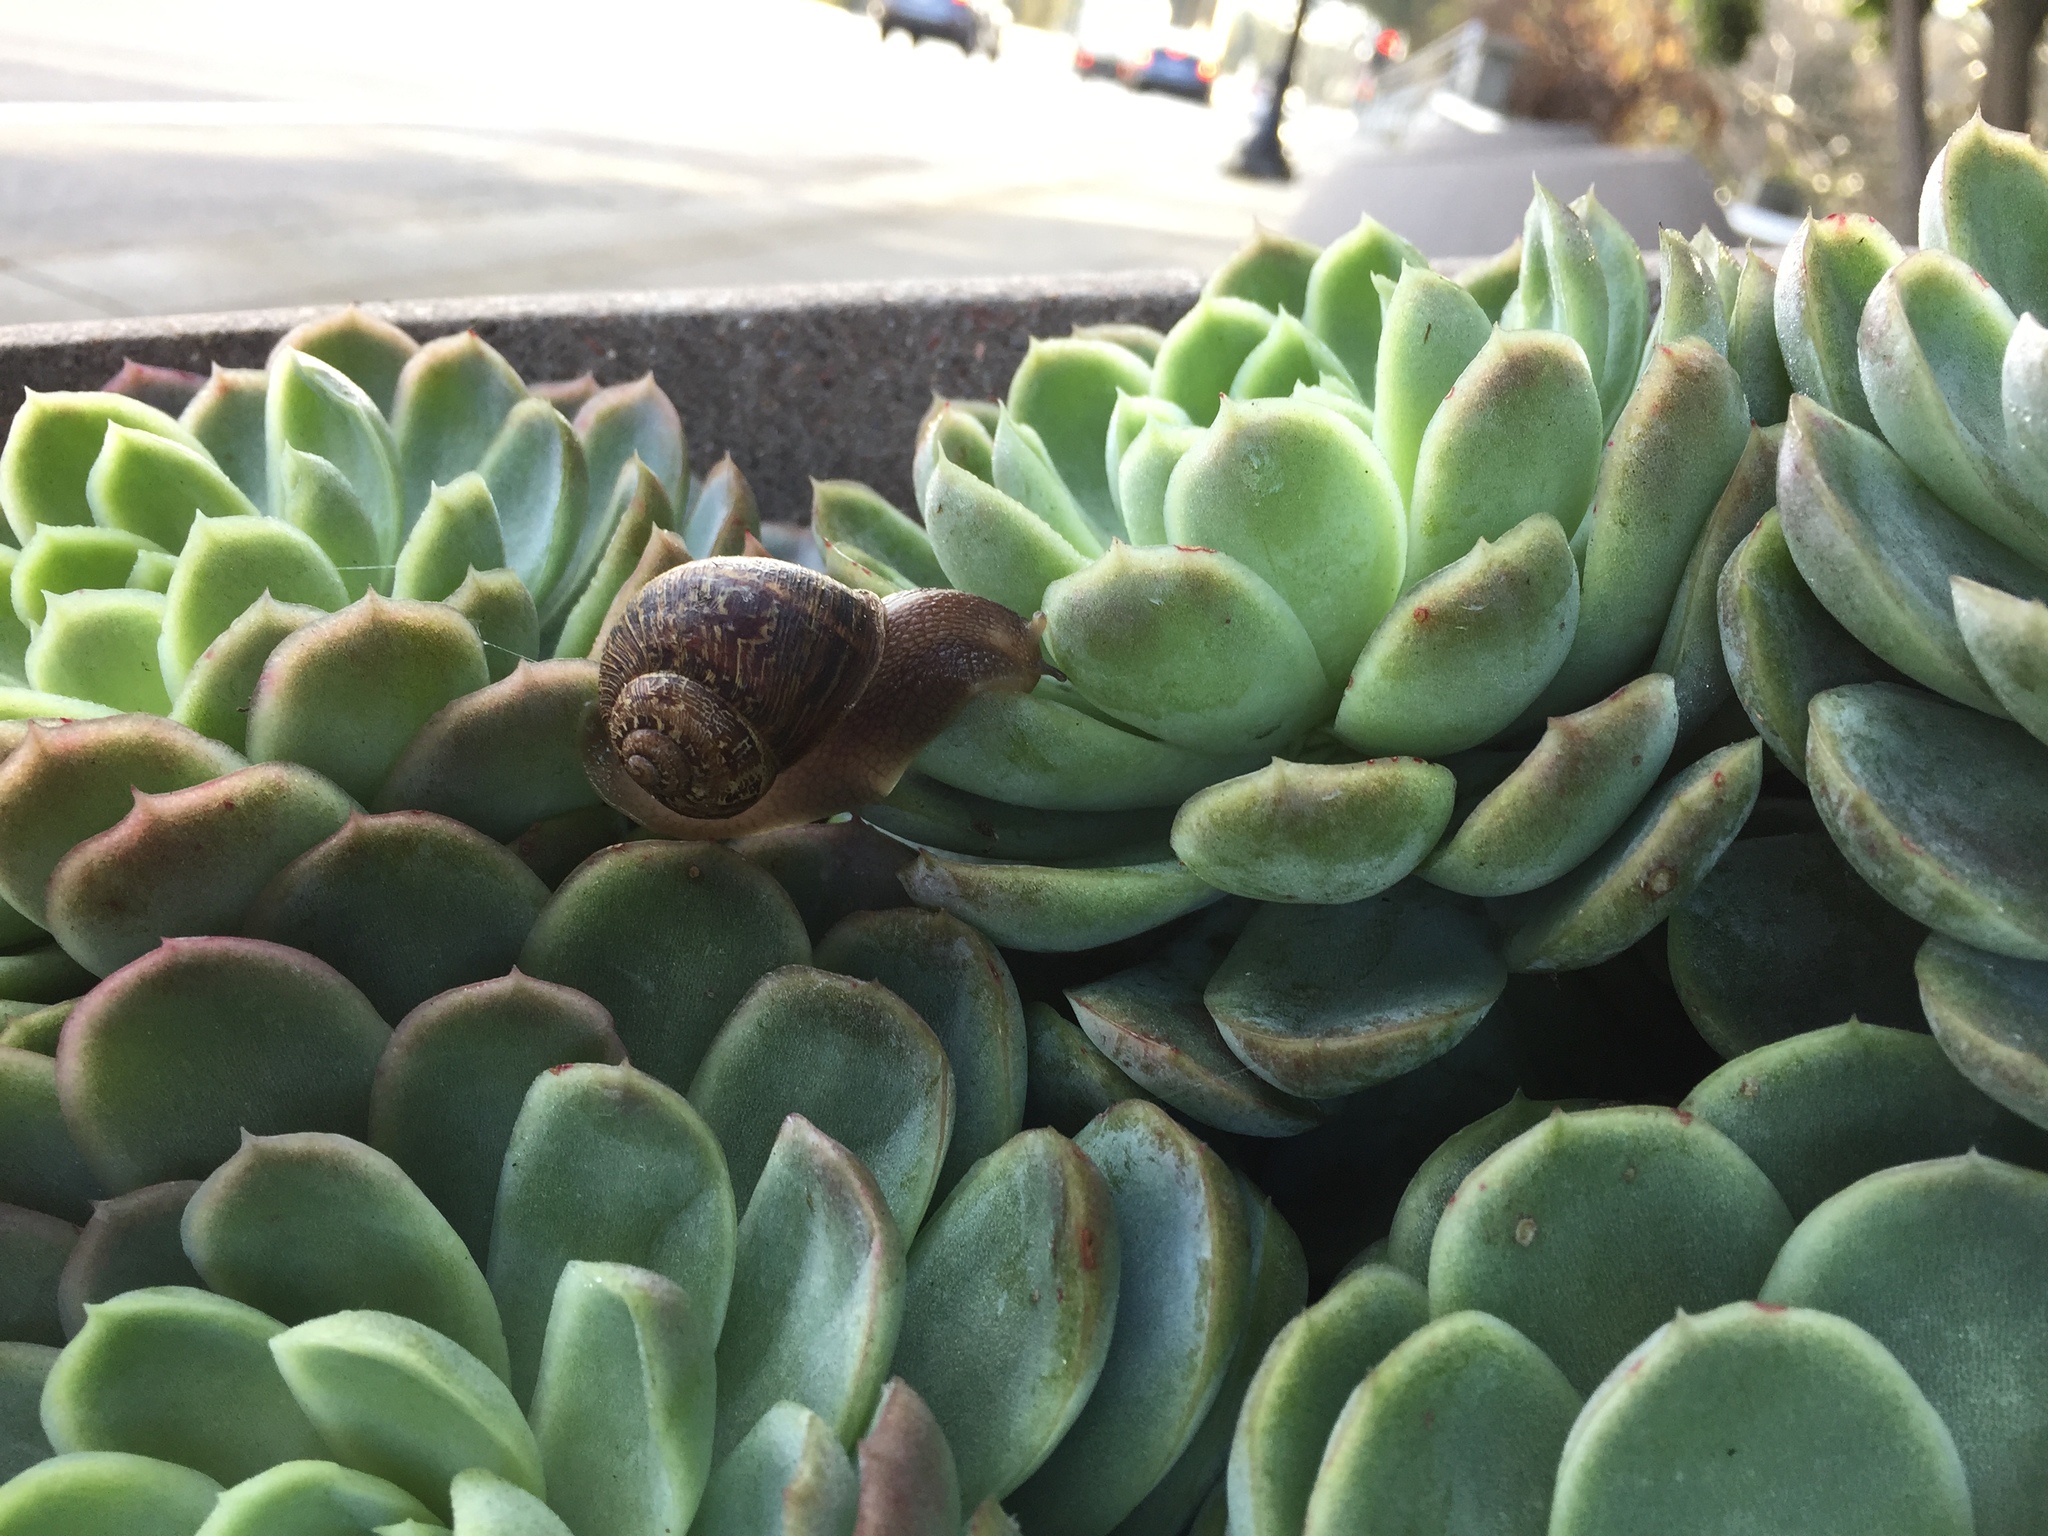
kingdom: Animalia
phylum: Mollusca
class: Gastropoda
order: Stylommatophora
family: Helicidae
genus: Cornu
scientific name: Cornu aspersum
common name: Brown garden snail
